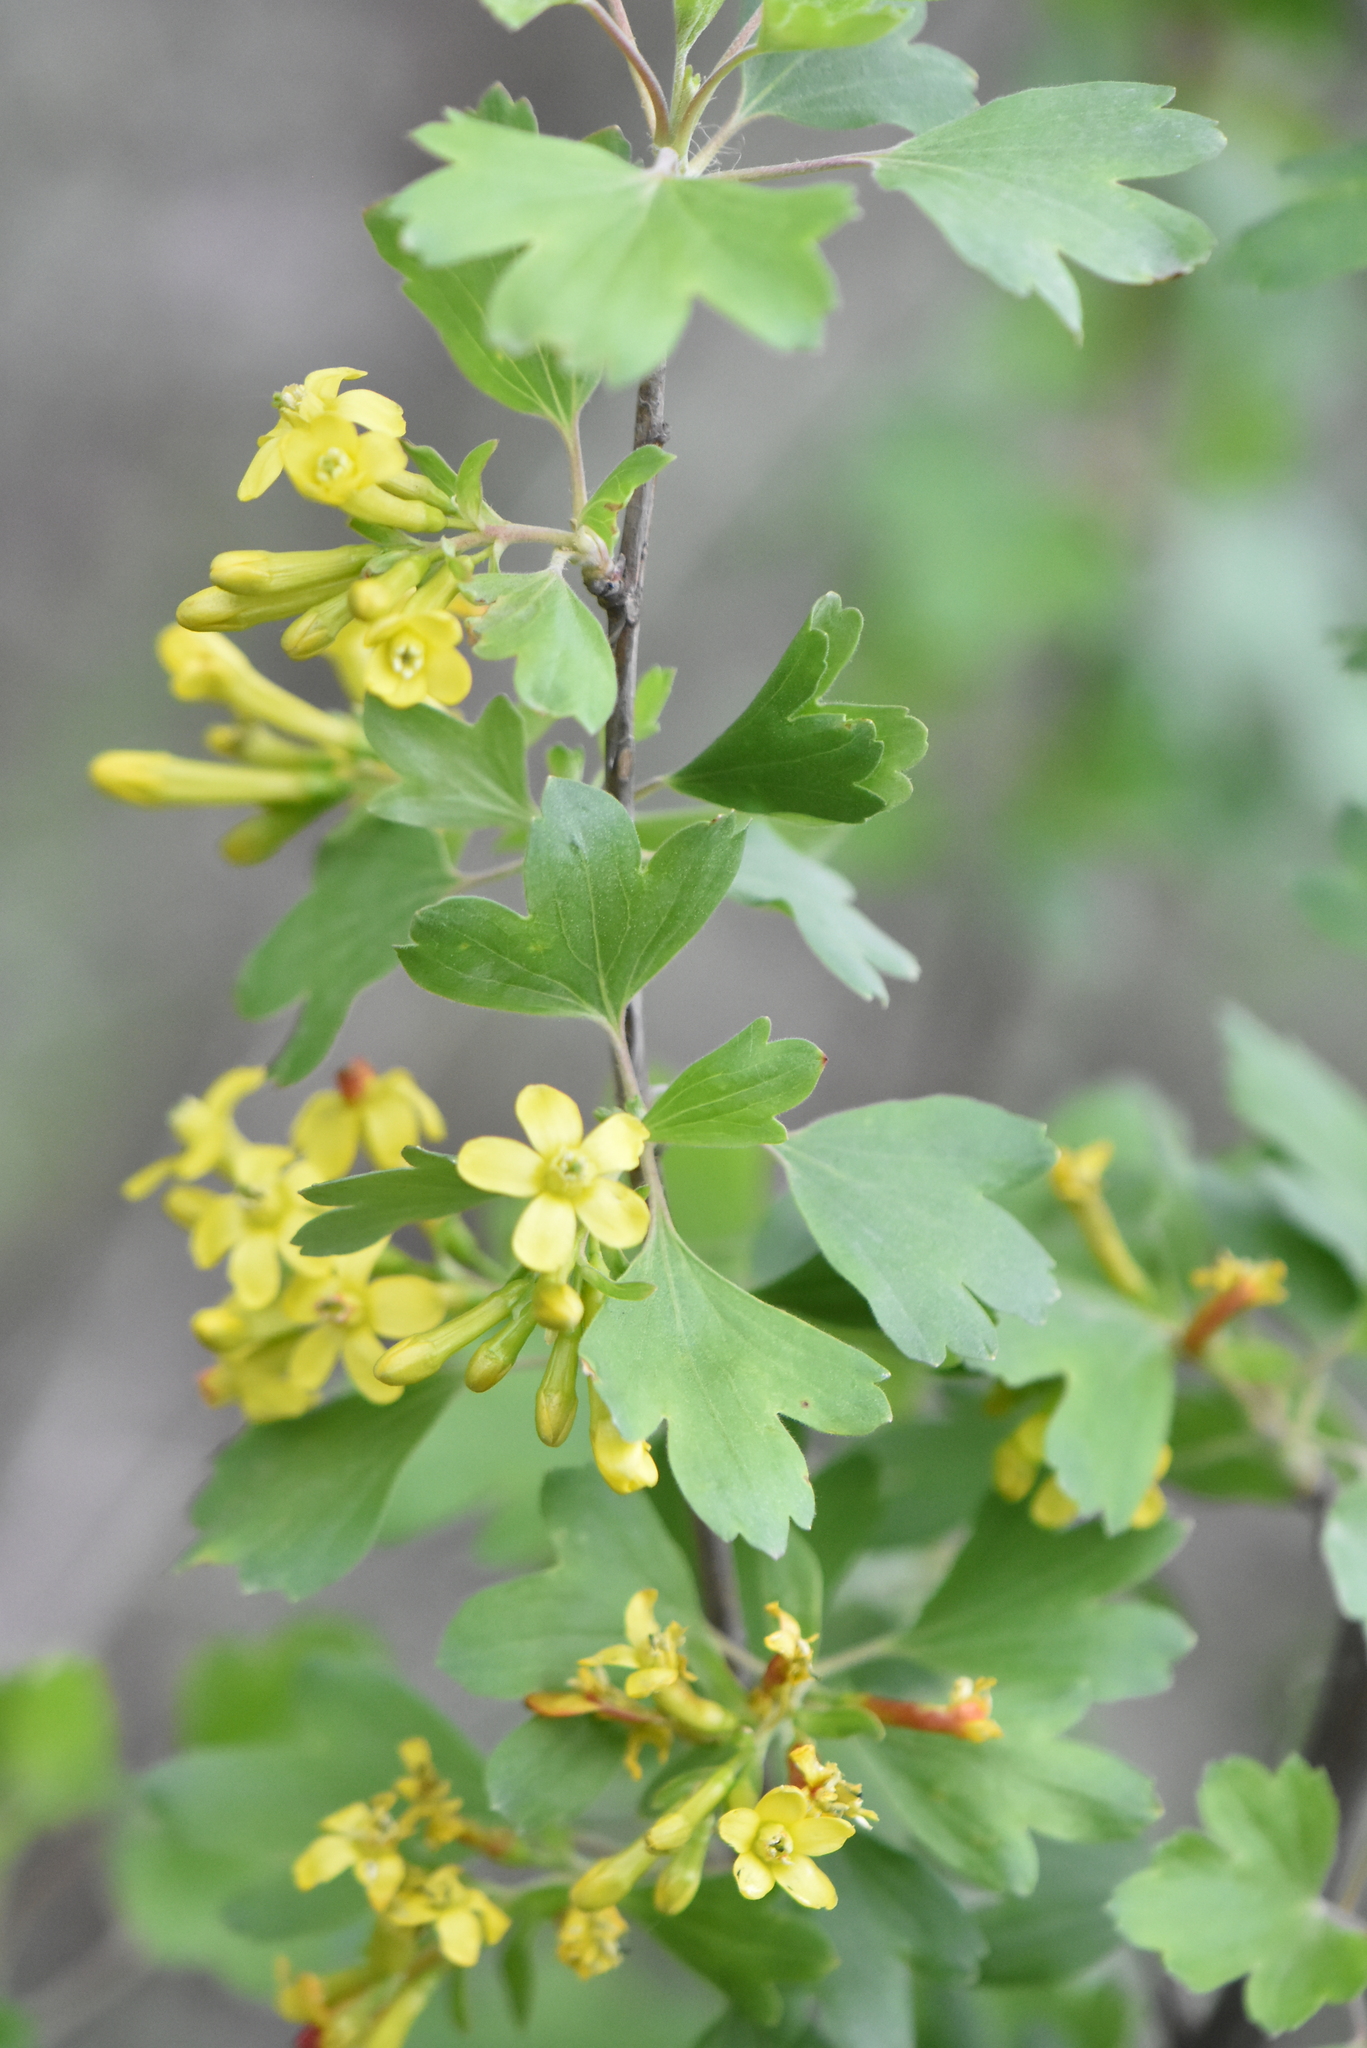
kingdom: Plantae
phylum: Tracheophyta
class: Magnoliopsida
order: Saxifragales
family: Grossulariaceae
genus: Ribes
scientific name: Ribes aureum
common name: Golden currant
